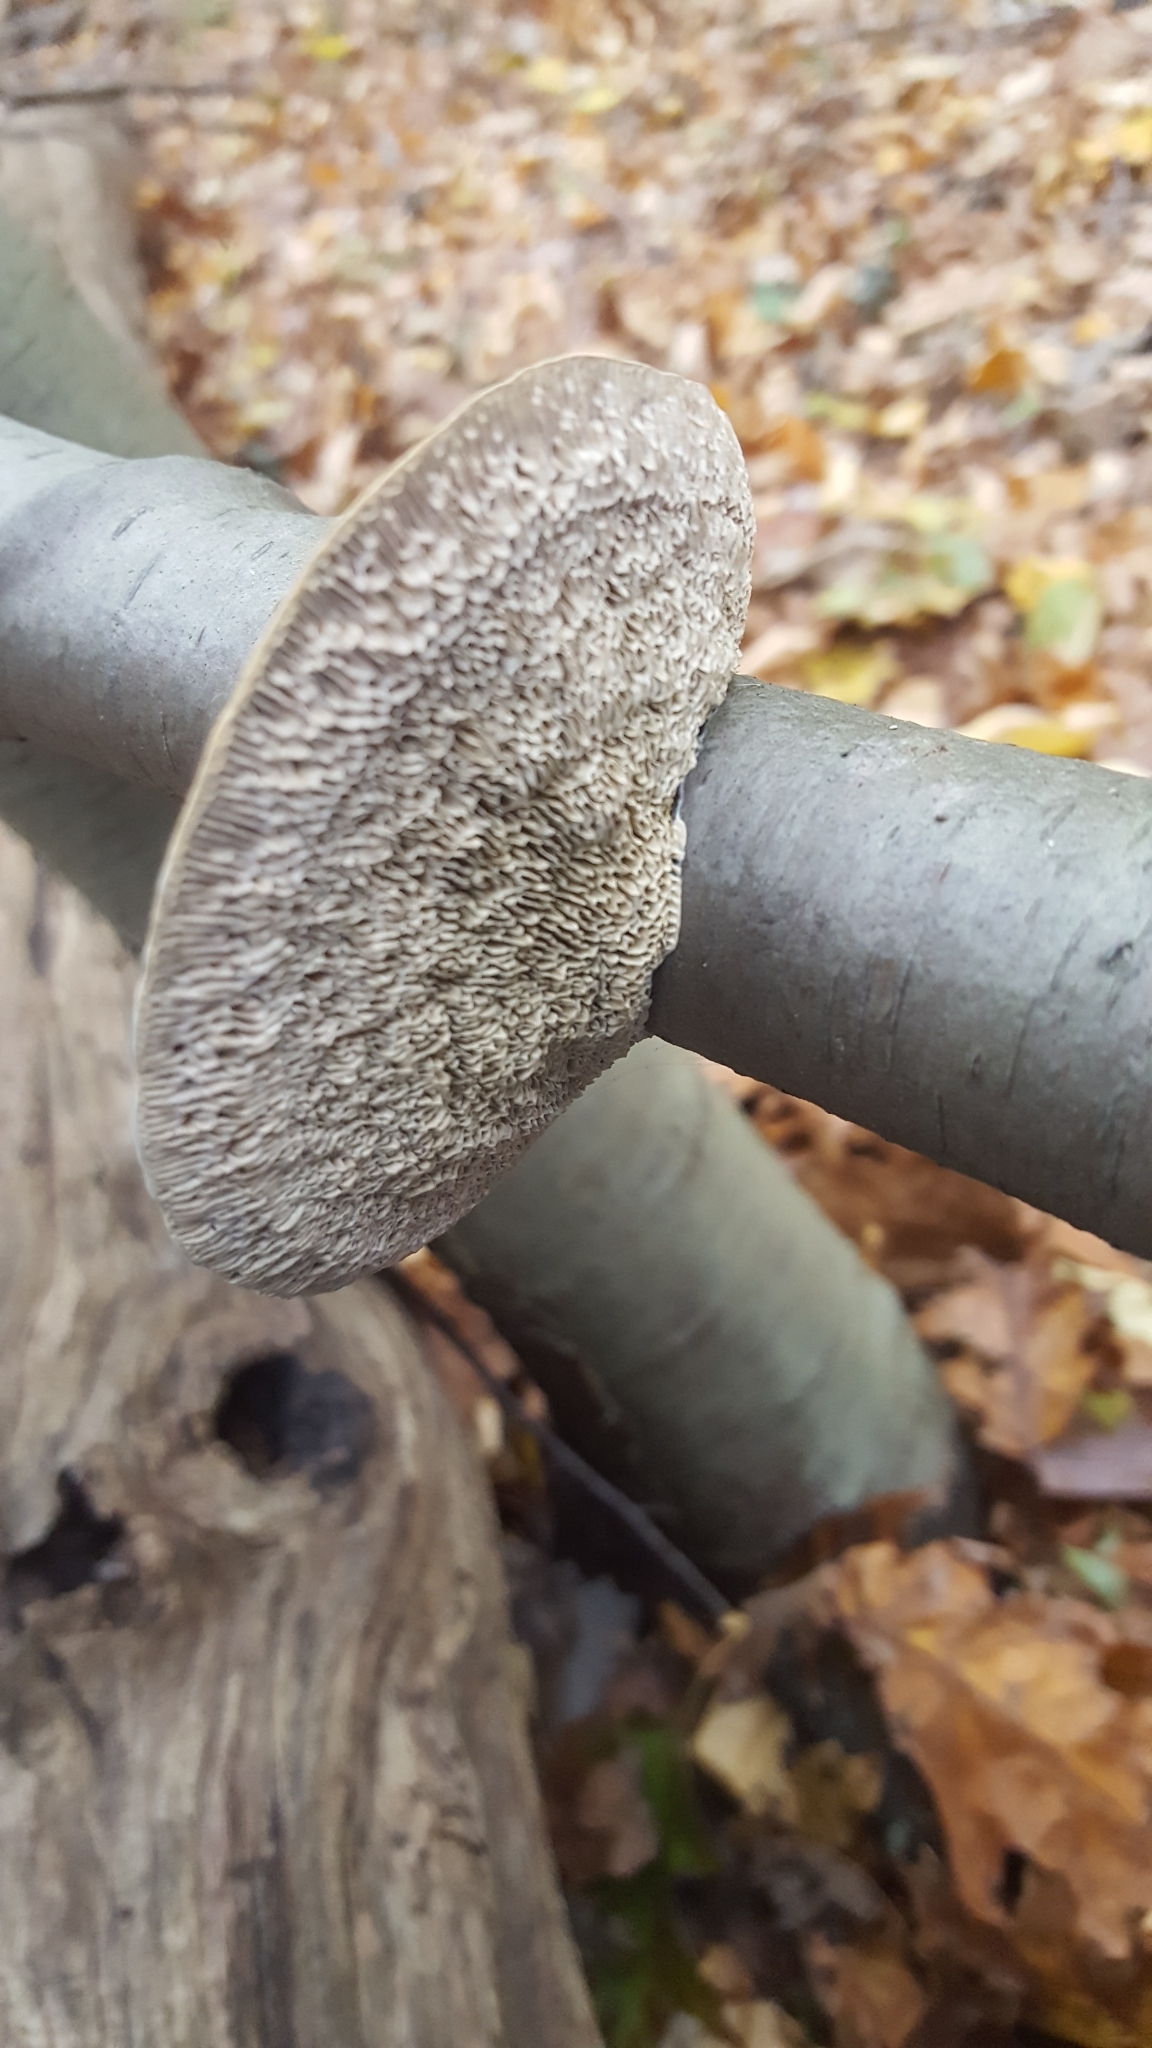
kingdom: Fungi
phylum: Basidiomycota
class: Agaricomycetes
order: Polyporales
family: Polyporaceae
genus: Daedaleopsis
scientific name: Daedaleopsis confragosa
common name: Blushing bracket
